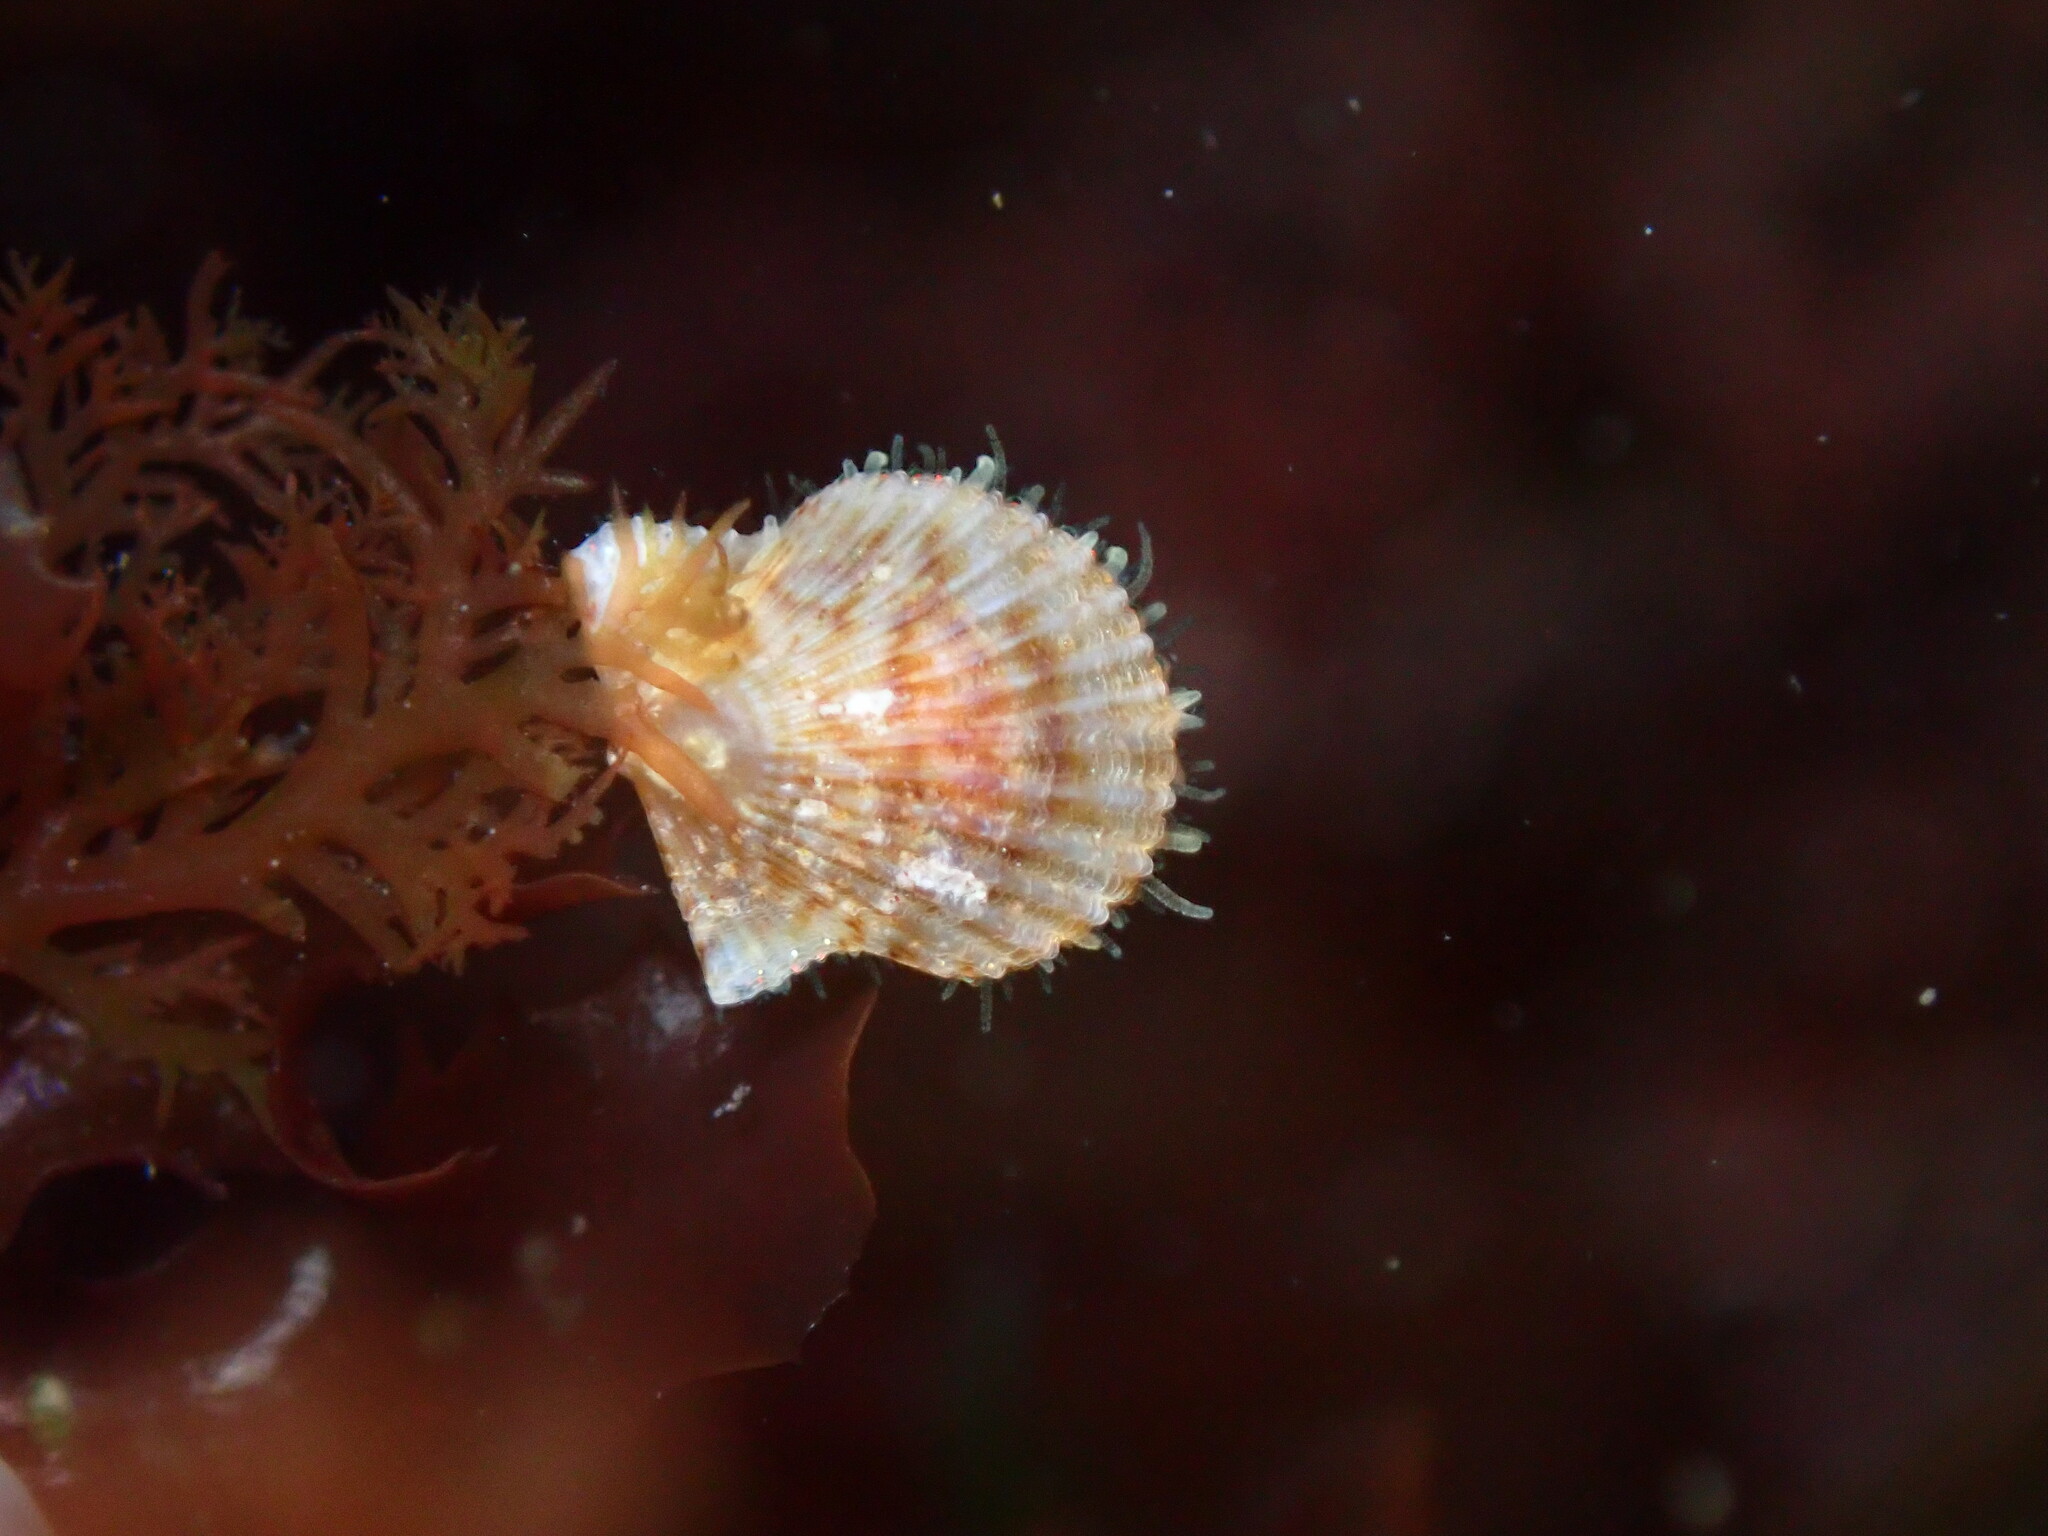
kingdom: Animalia
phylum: Mollusca
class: Bivalvia
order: Pectinida
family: Pectinidae
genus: Leptopecten
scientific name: Leptopecten latiauratus
